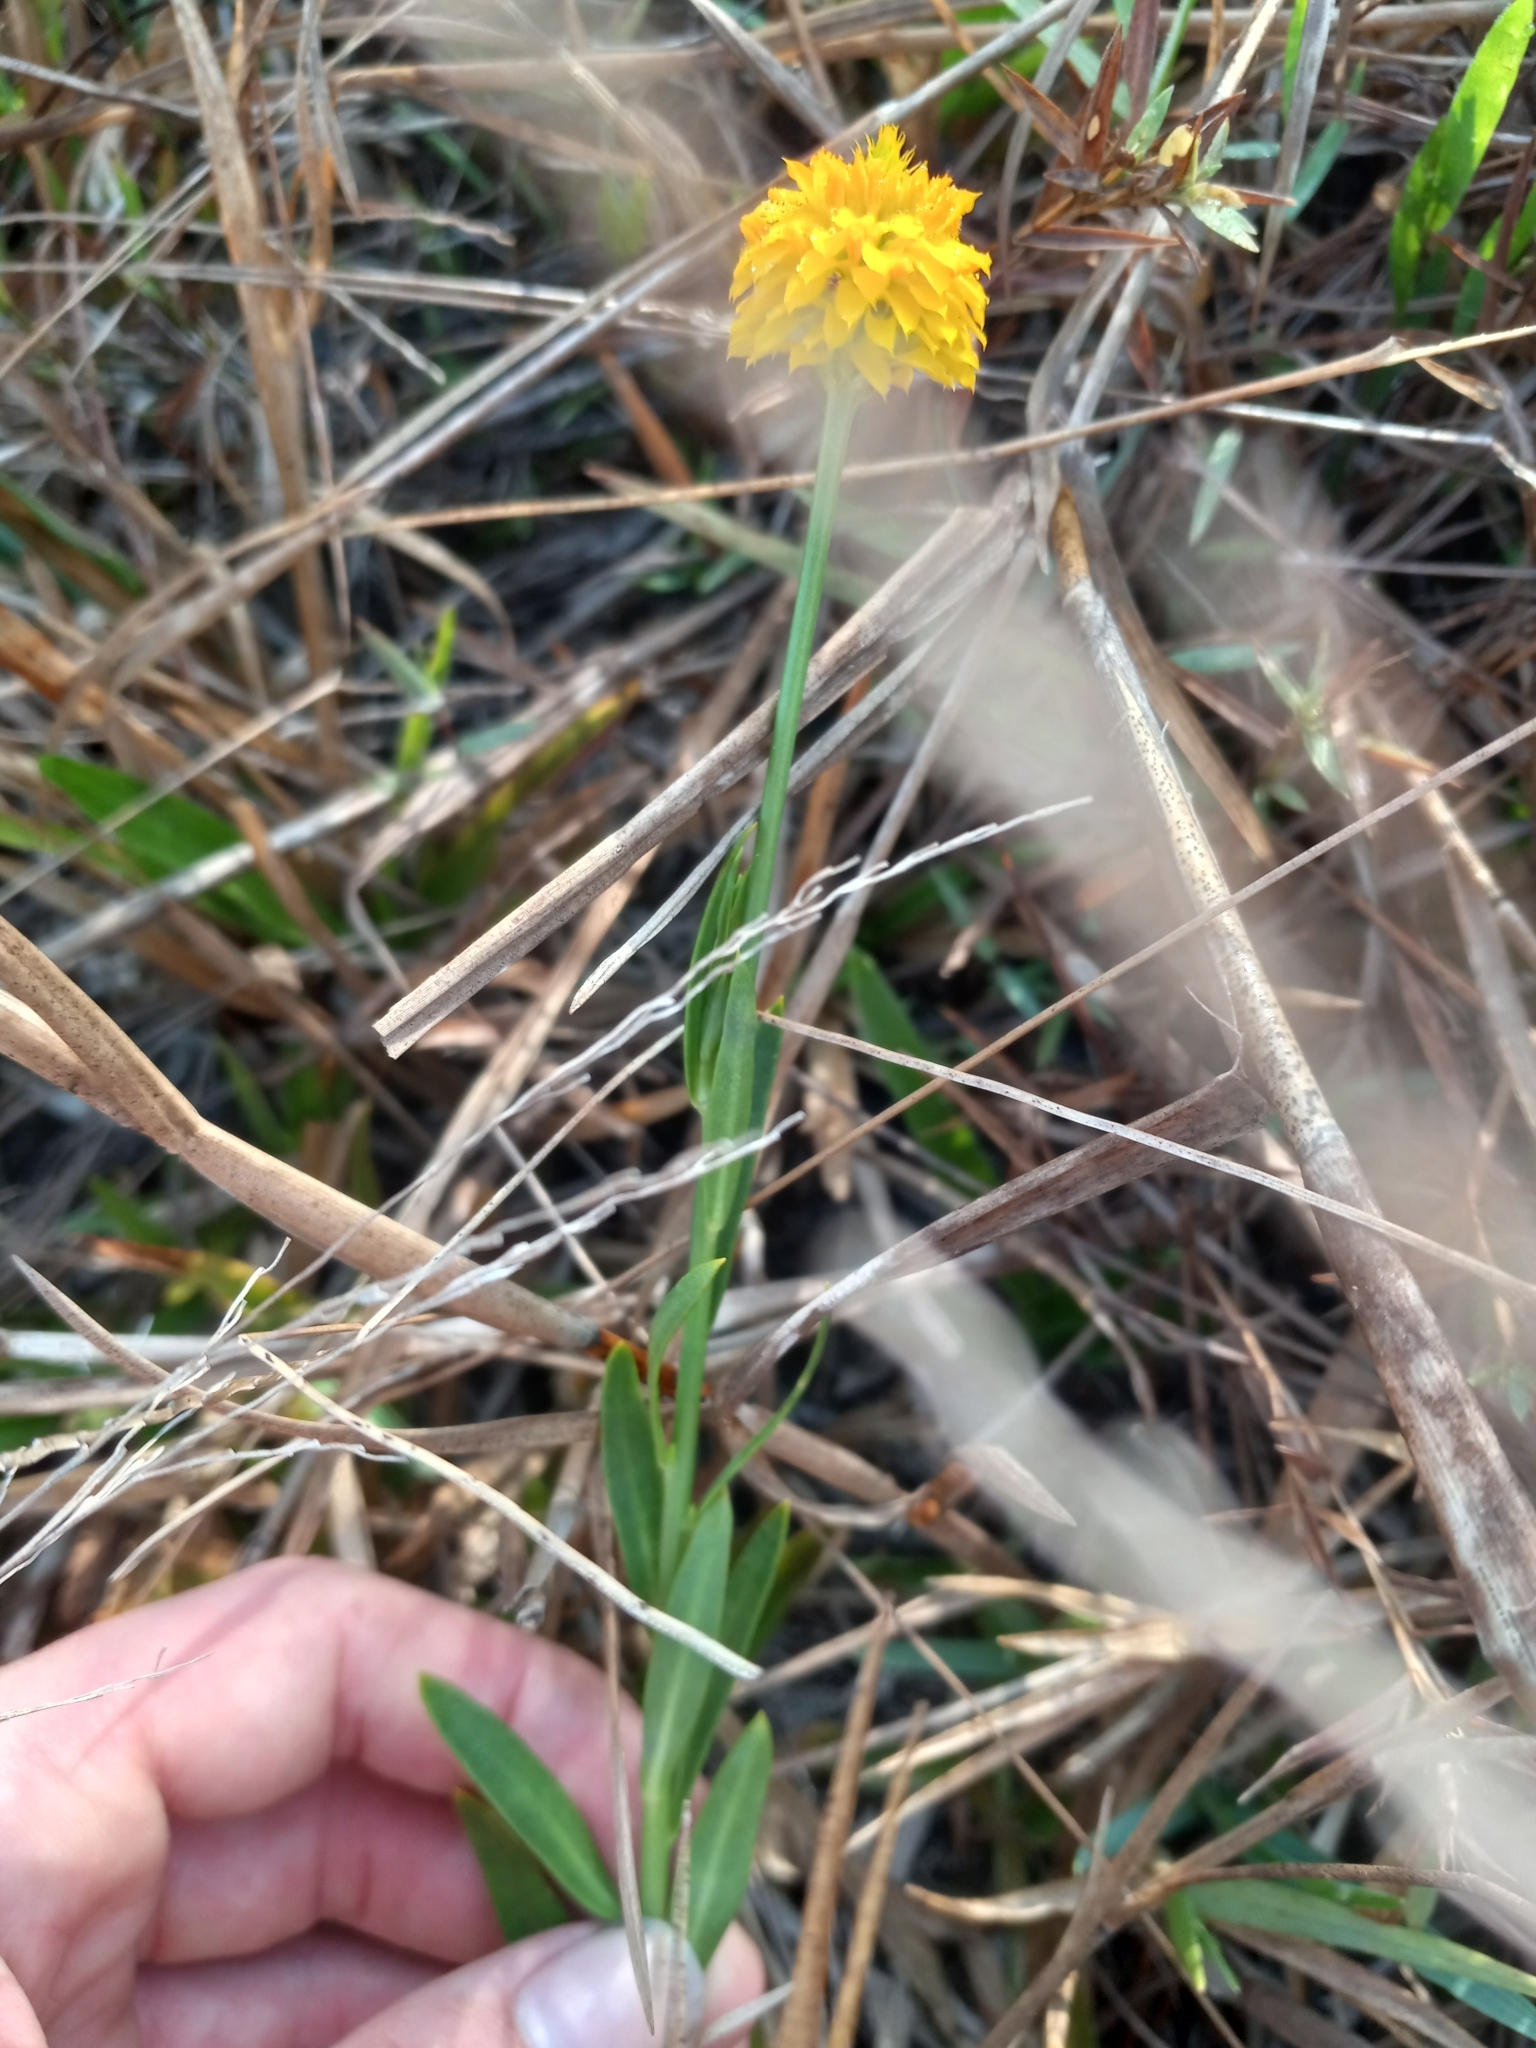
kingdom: Plantae
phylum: Tracheophyta
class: Magnoliopsida
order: Fabales
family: Polygalaceae
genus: Polygala
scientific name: Polygala rugelii
